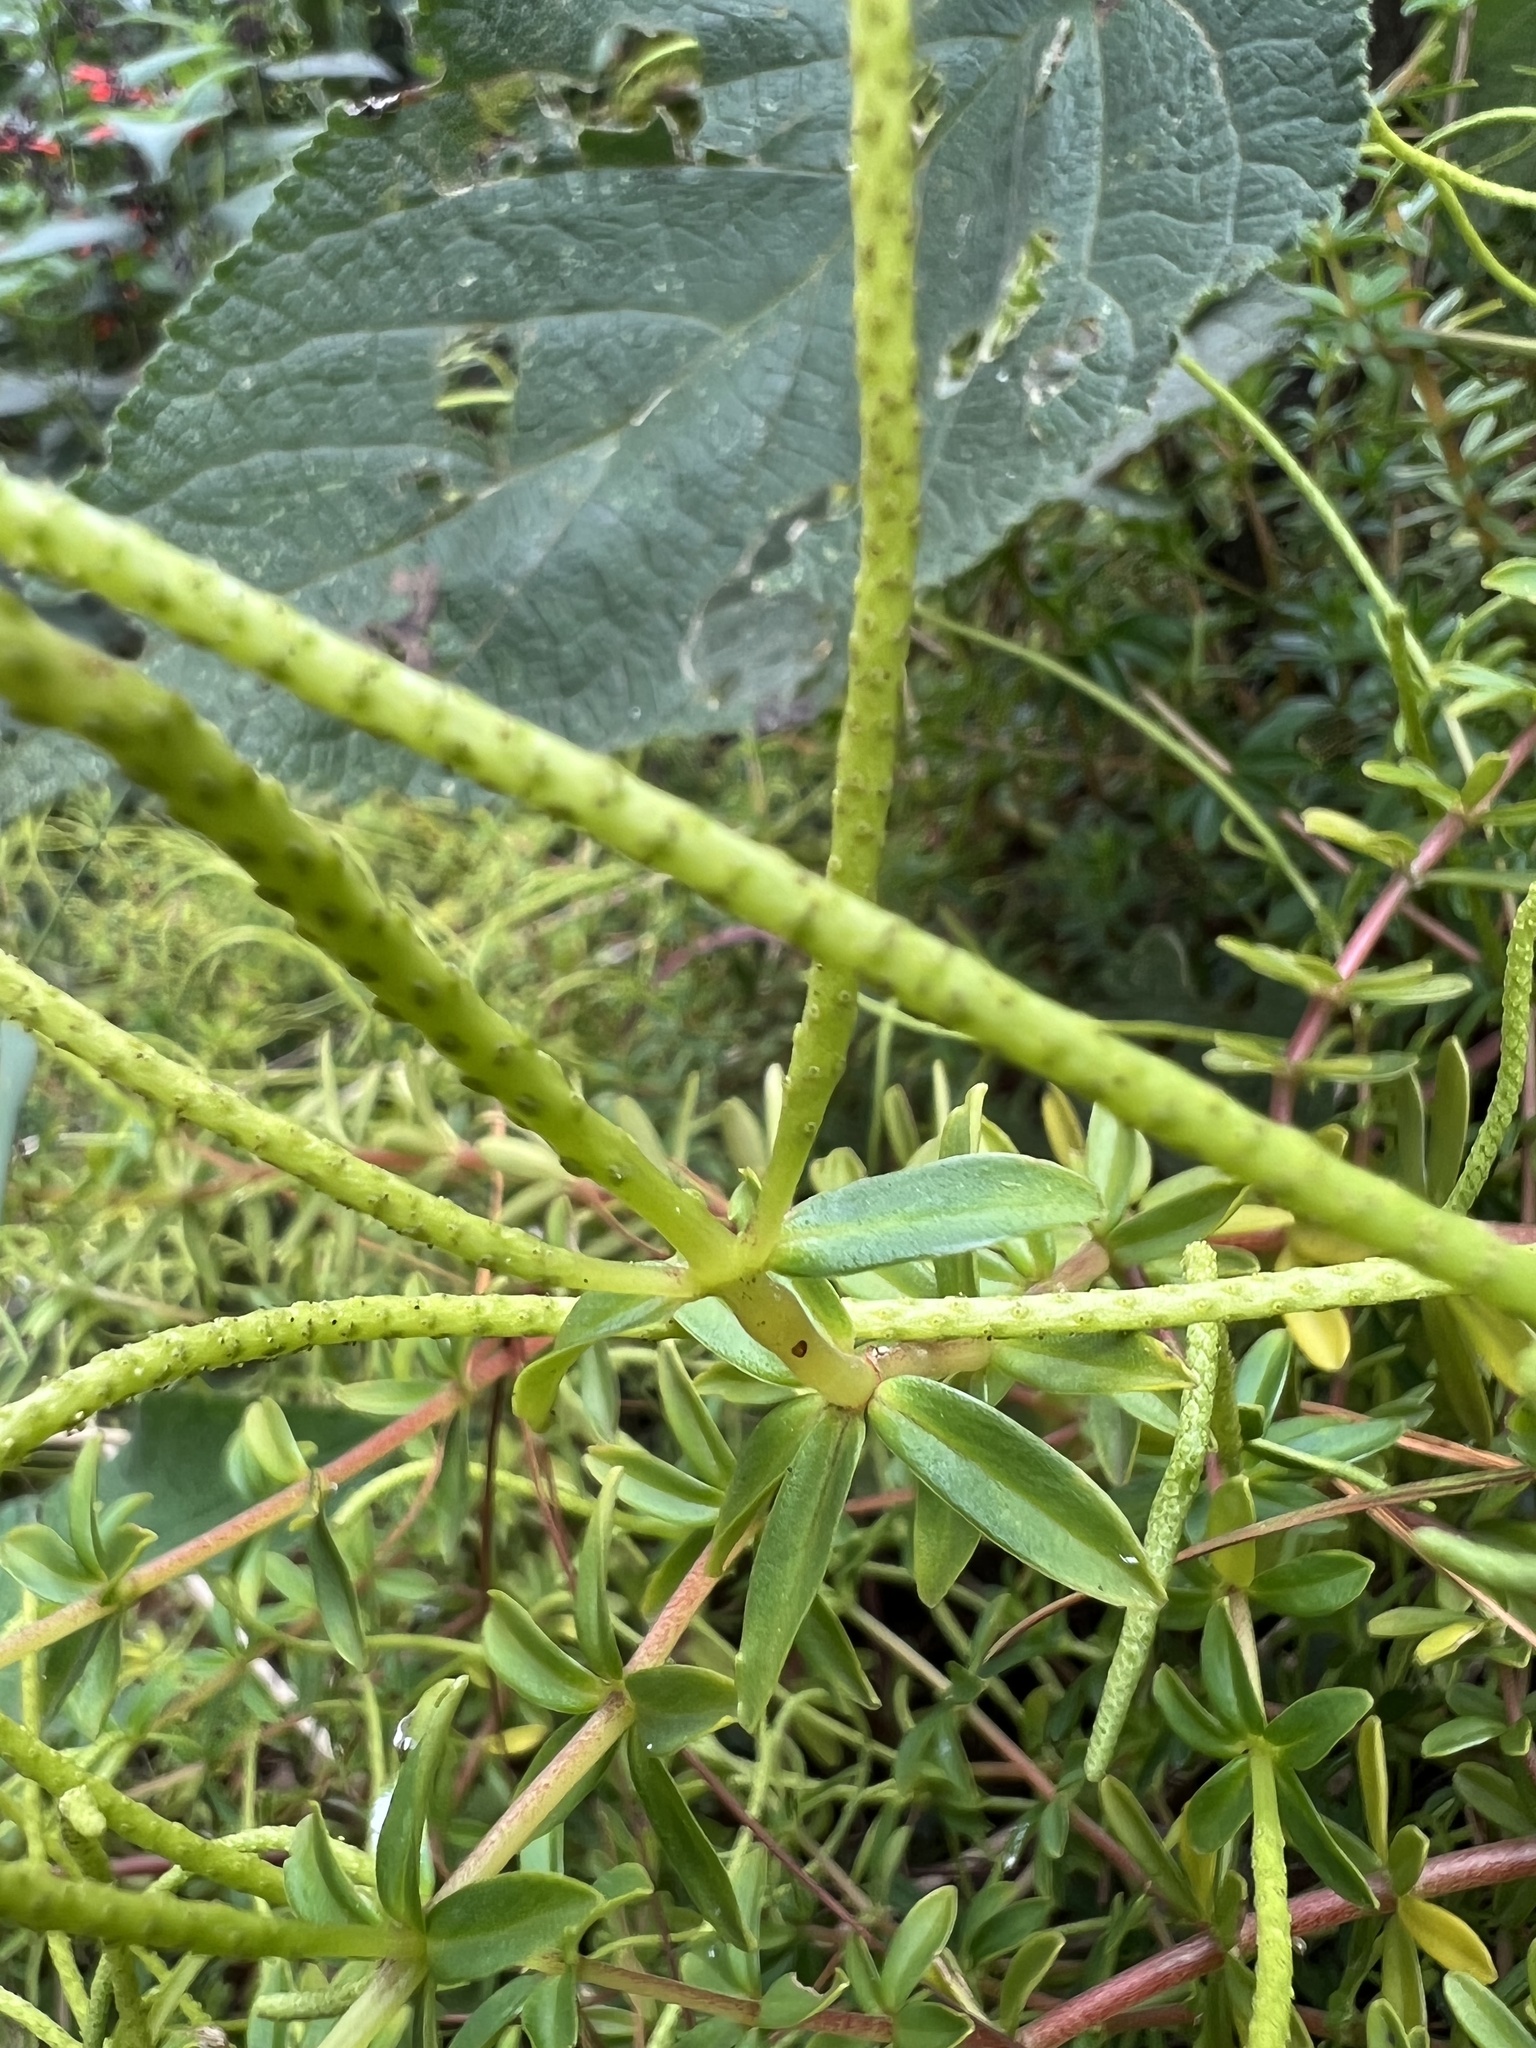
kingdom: Plantae
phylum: Tracheophyta
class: Magnoliopsida
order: Piperales
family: Piperaceae
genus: Peperomia
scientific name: Peperomia galioides
